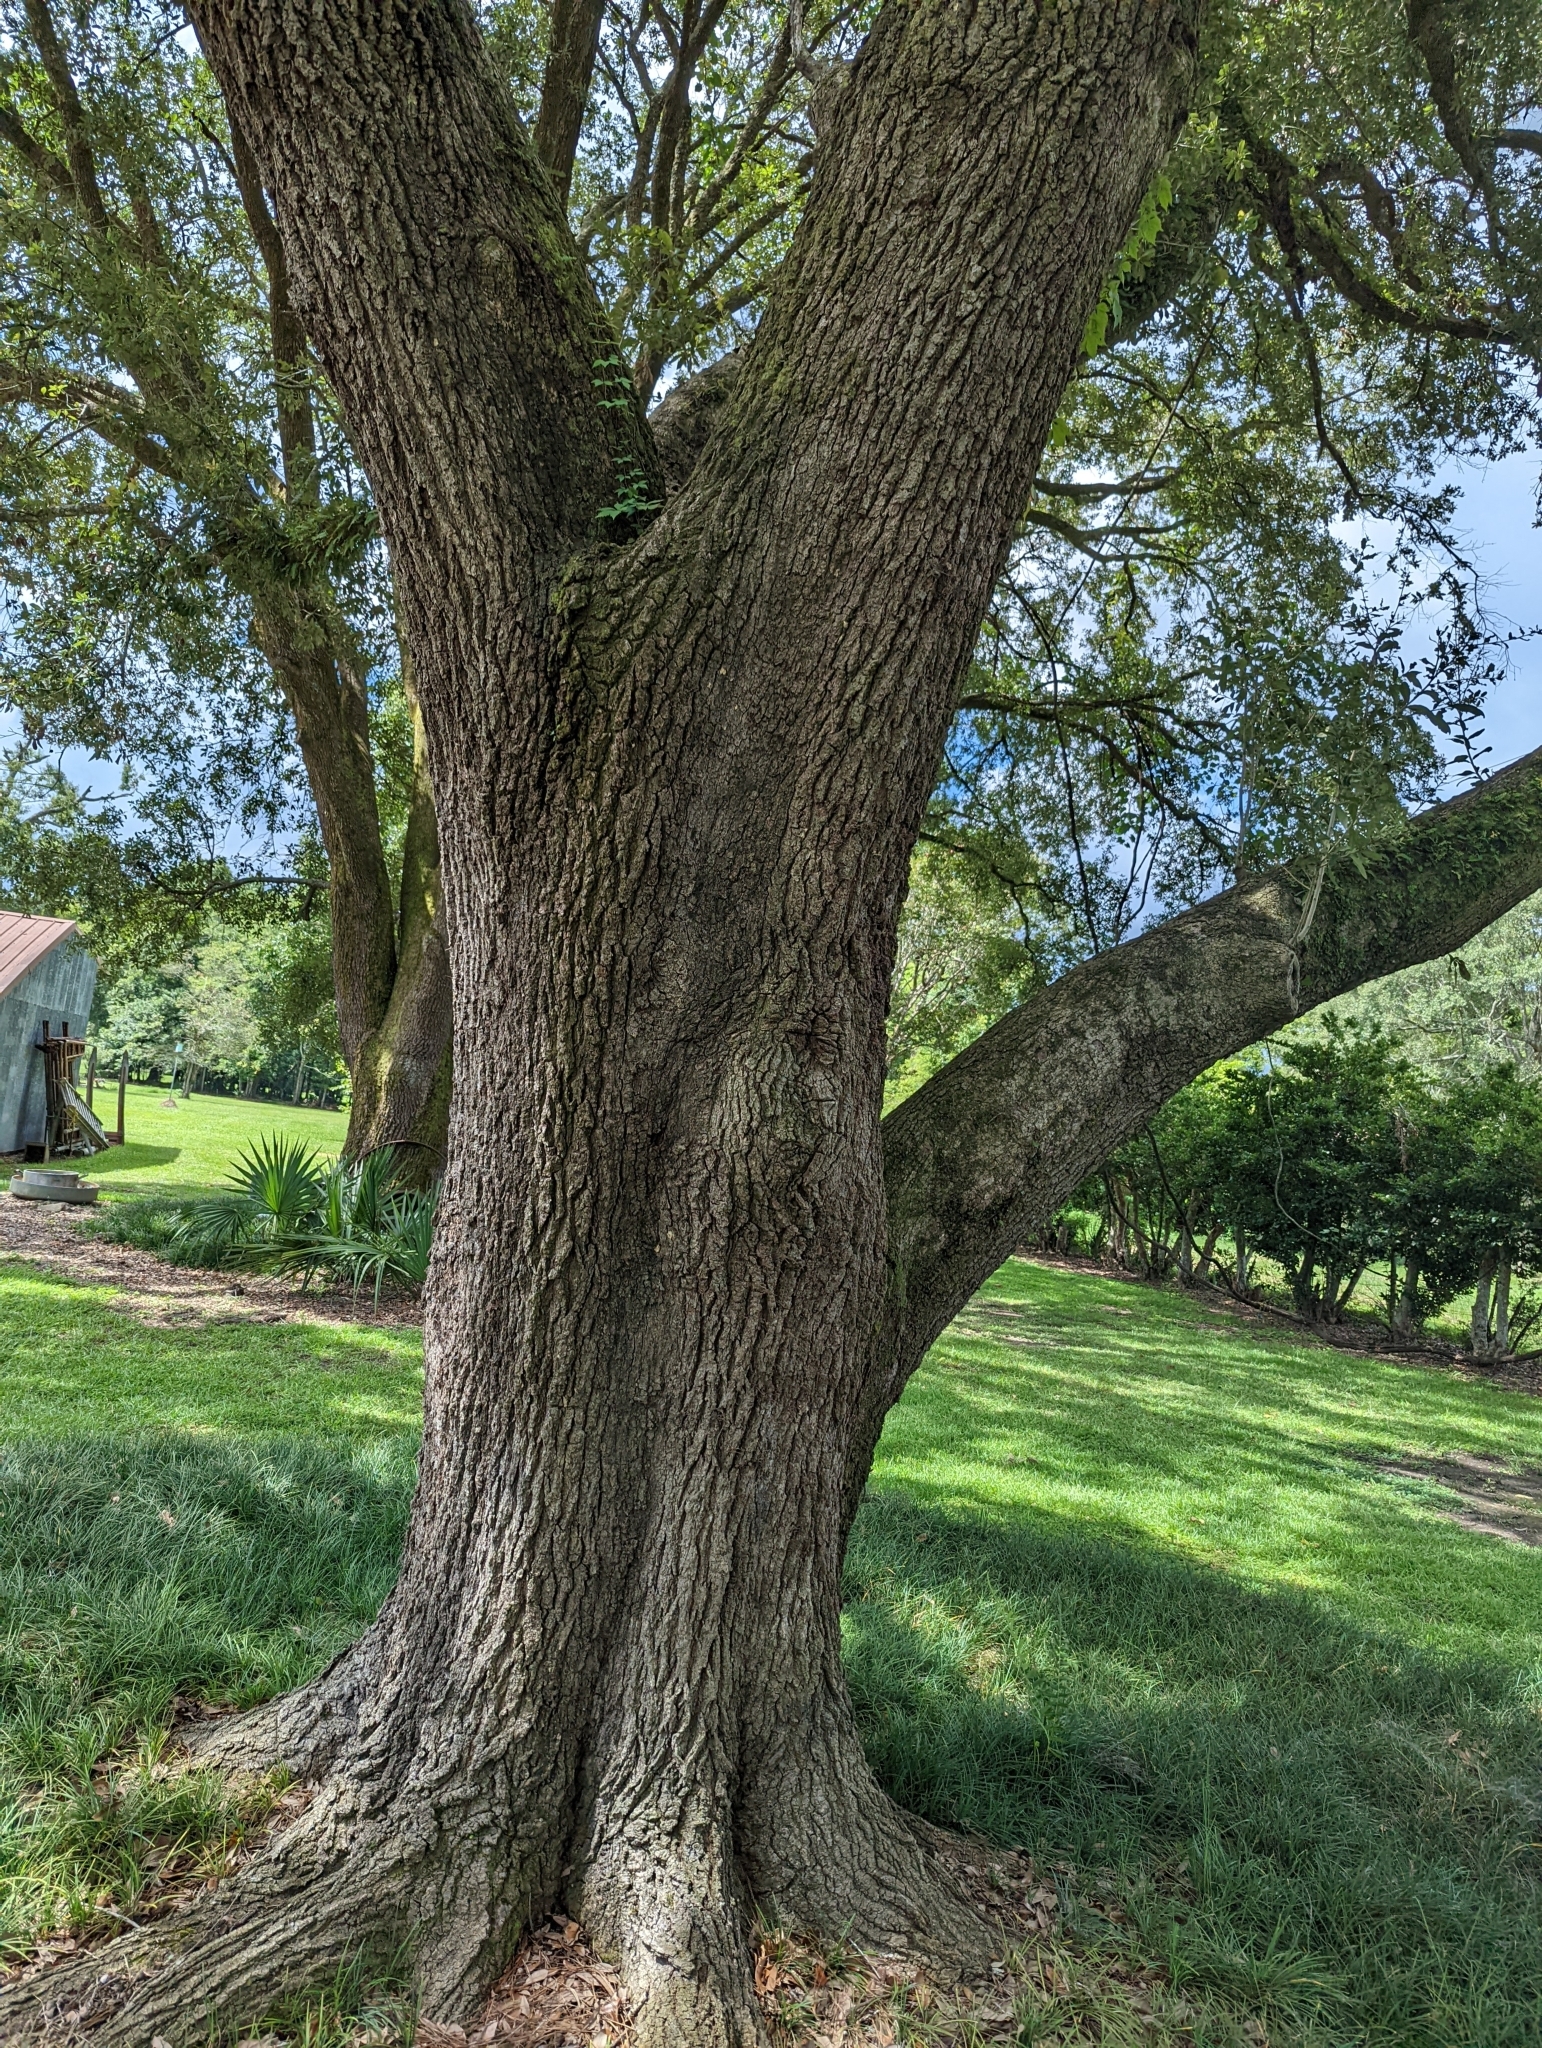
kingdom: Animalia
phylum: Arthropoda
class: Insecta
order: Hymenoptera
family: Cynipidae
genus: Disholcaspis
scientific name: Disholcaspis
